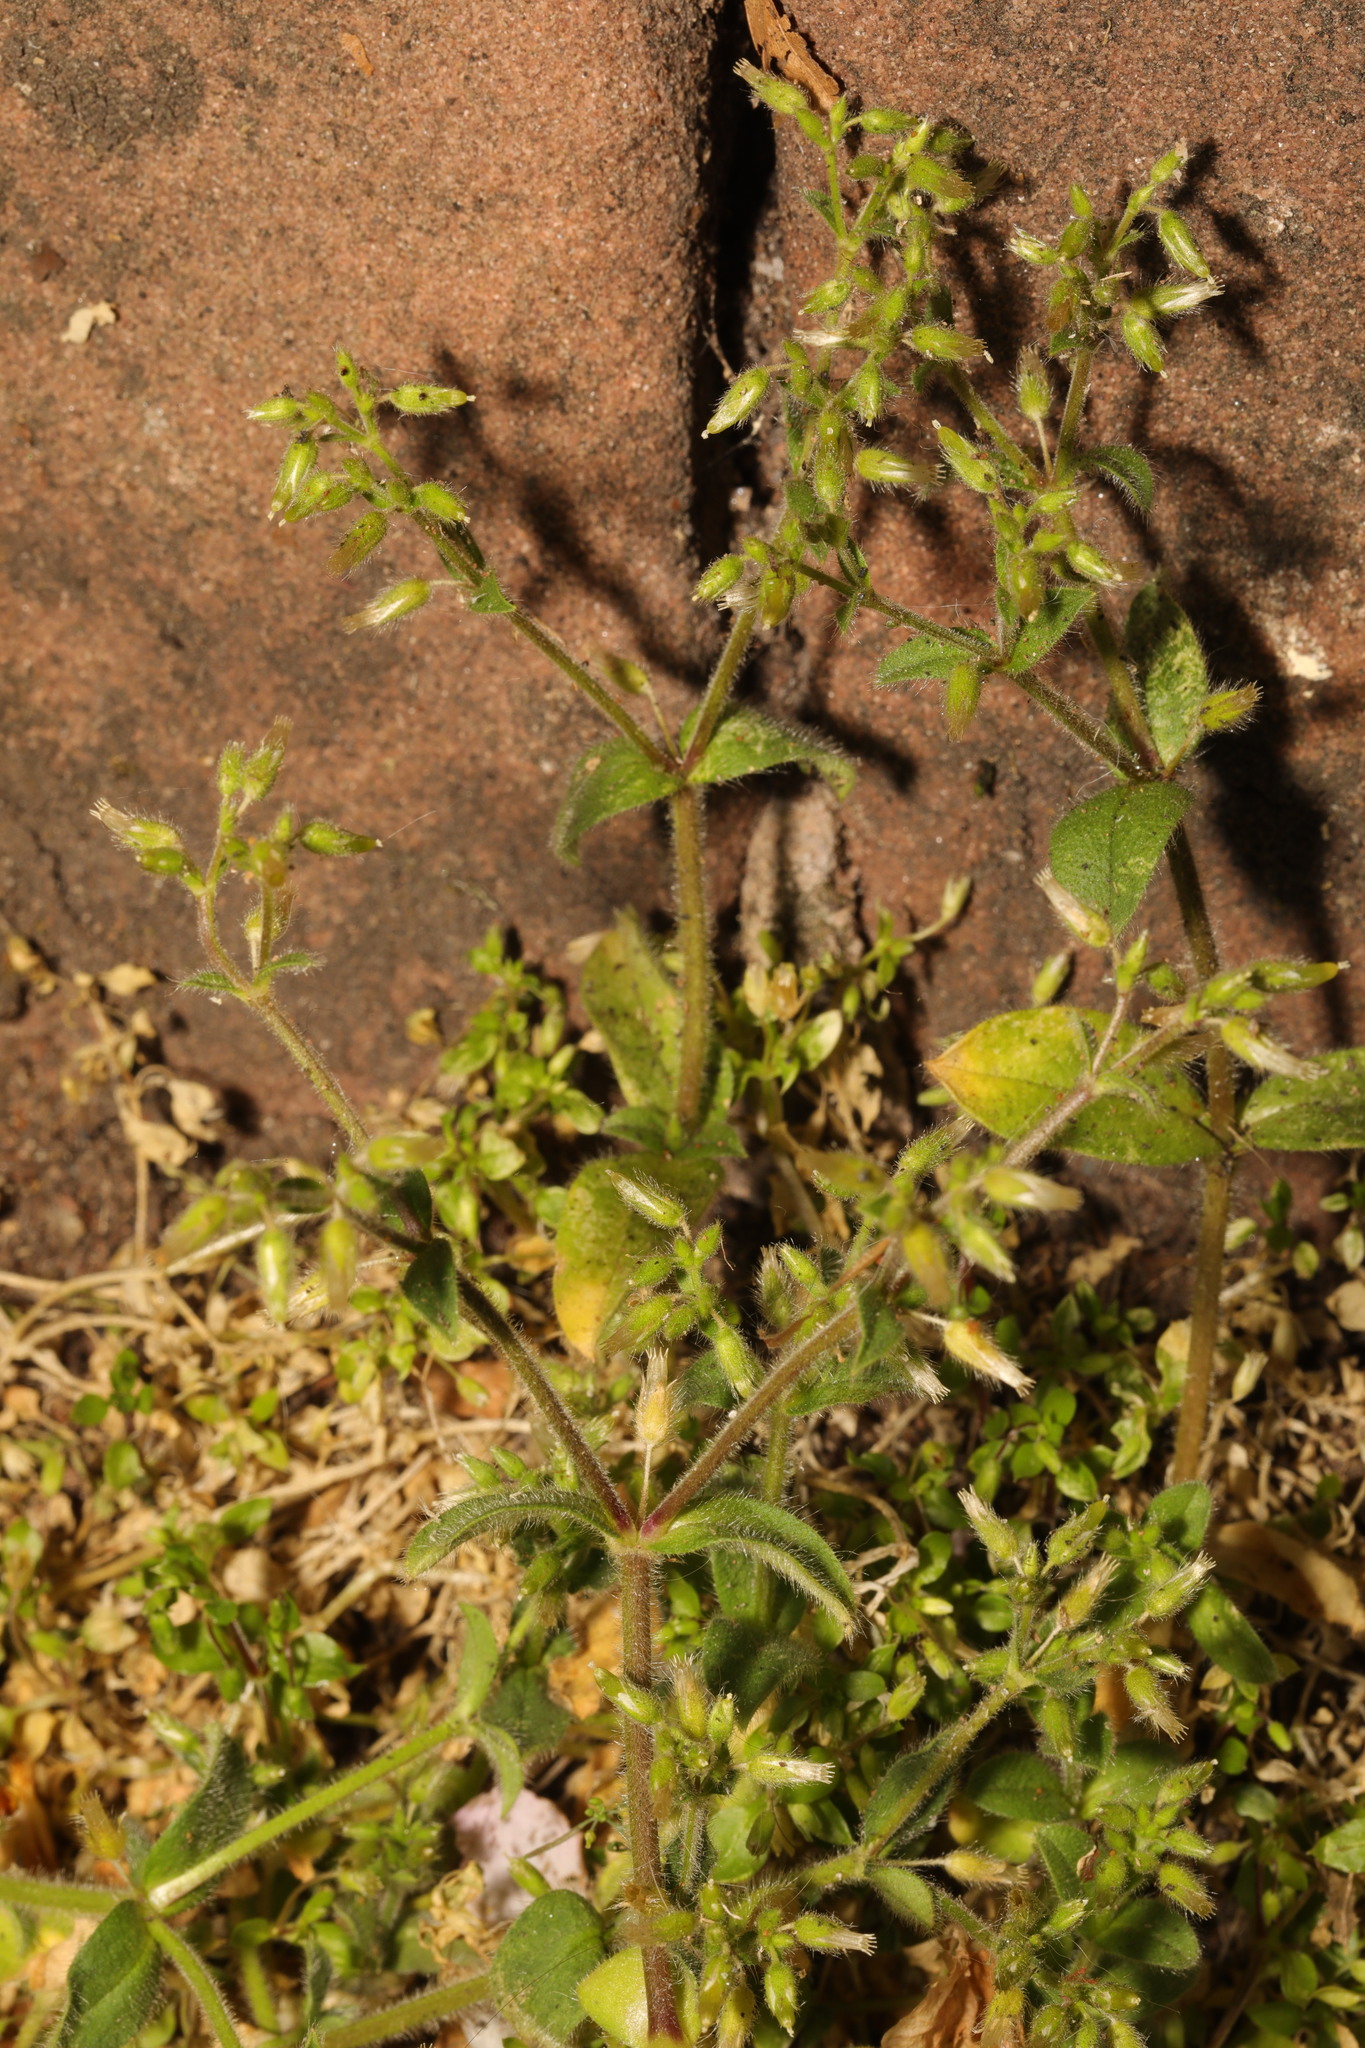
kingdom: Plantae
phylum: Tracheophyta
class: Magnoliopsida
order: Caryophyllales
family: Caryophyllaceae
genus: Cerastium
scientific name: Cerastium glomeratum
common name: Sticky chickweed
